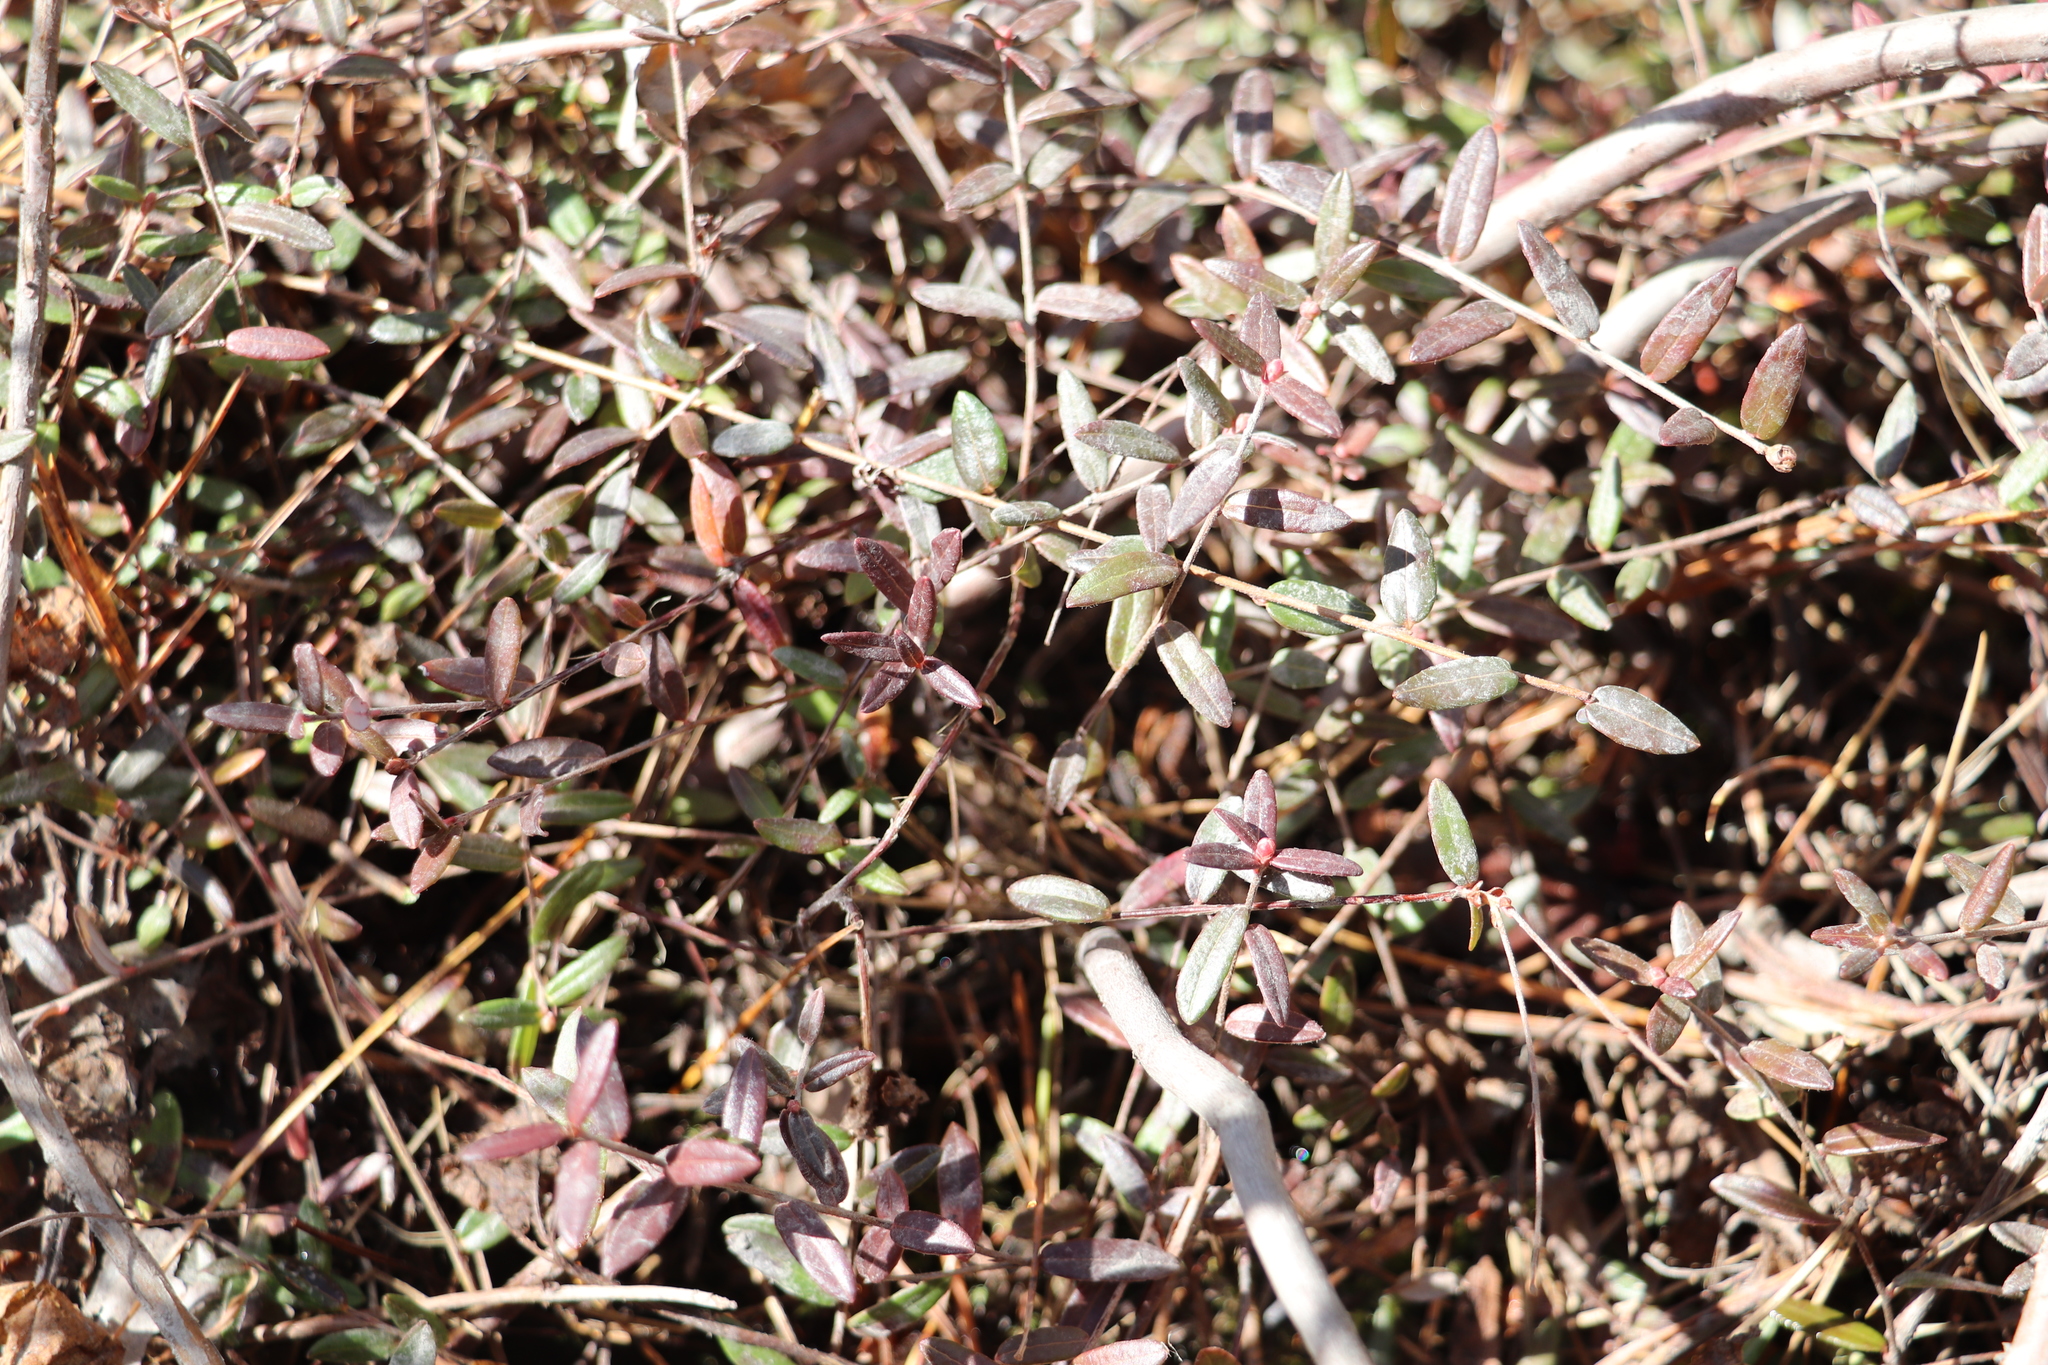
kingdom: Plantae
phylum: Tracheophyta
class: Magnoliopsida
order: Ericales
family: Ericaceae
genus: Vaccinium
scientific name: Vaccinium oxycoccos
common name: Cranberry
